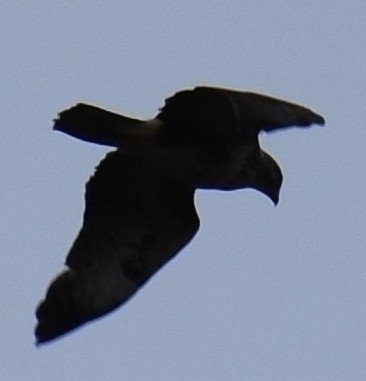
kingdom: Animalia
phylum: Chordata
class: Aves
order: Accipitriformes
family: Accipitridae
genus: Buteo
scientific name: Buteo buteo
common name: Common buzzard
